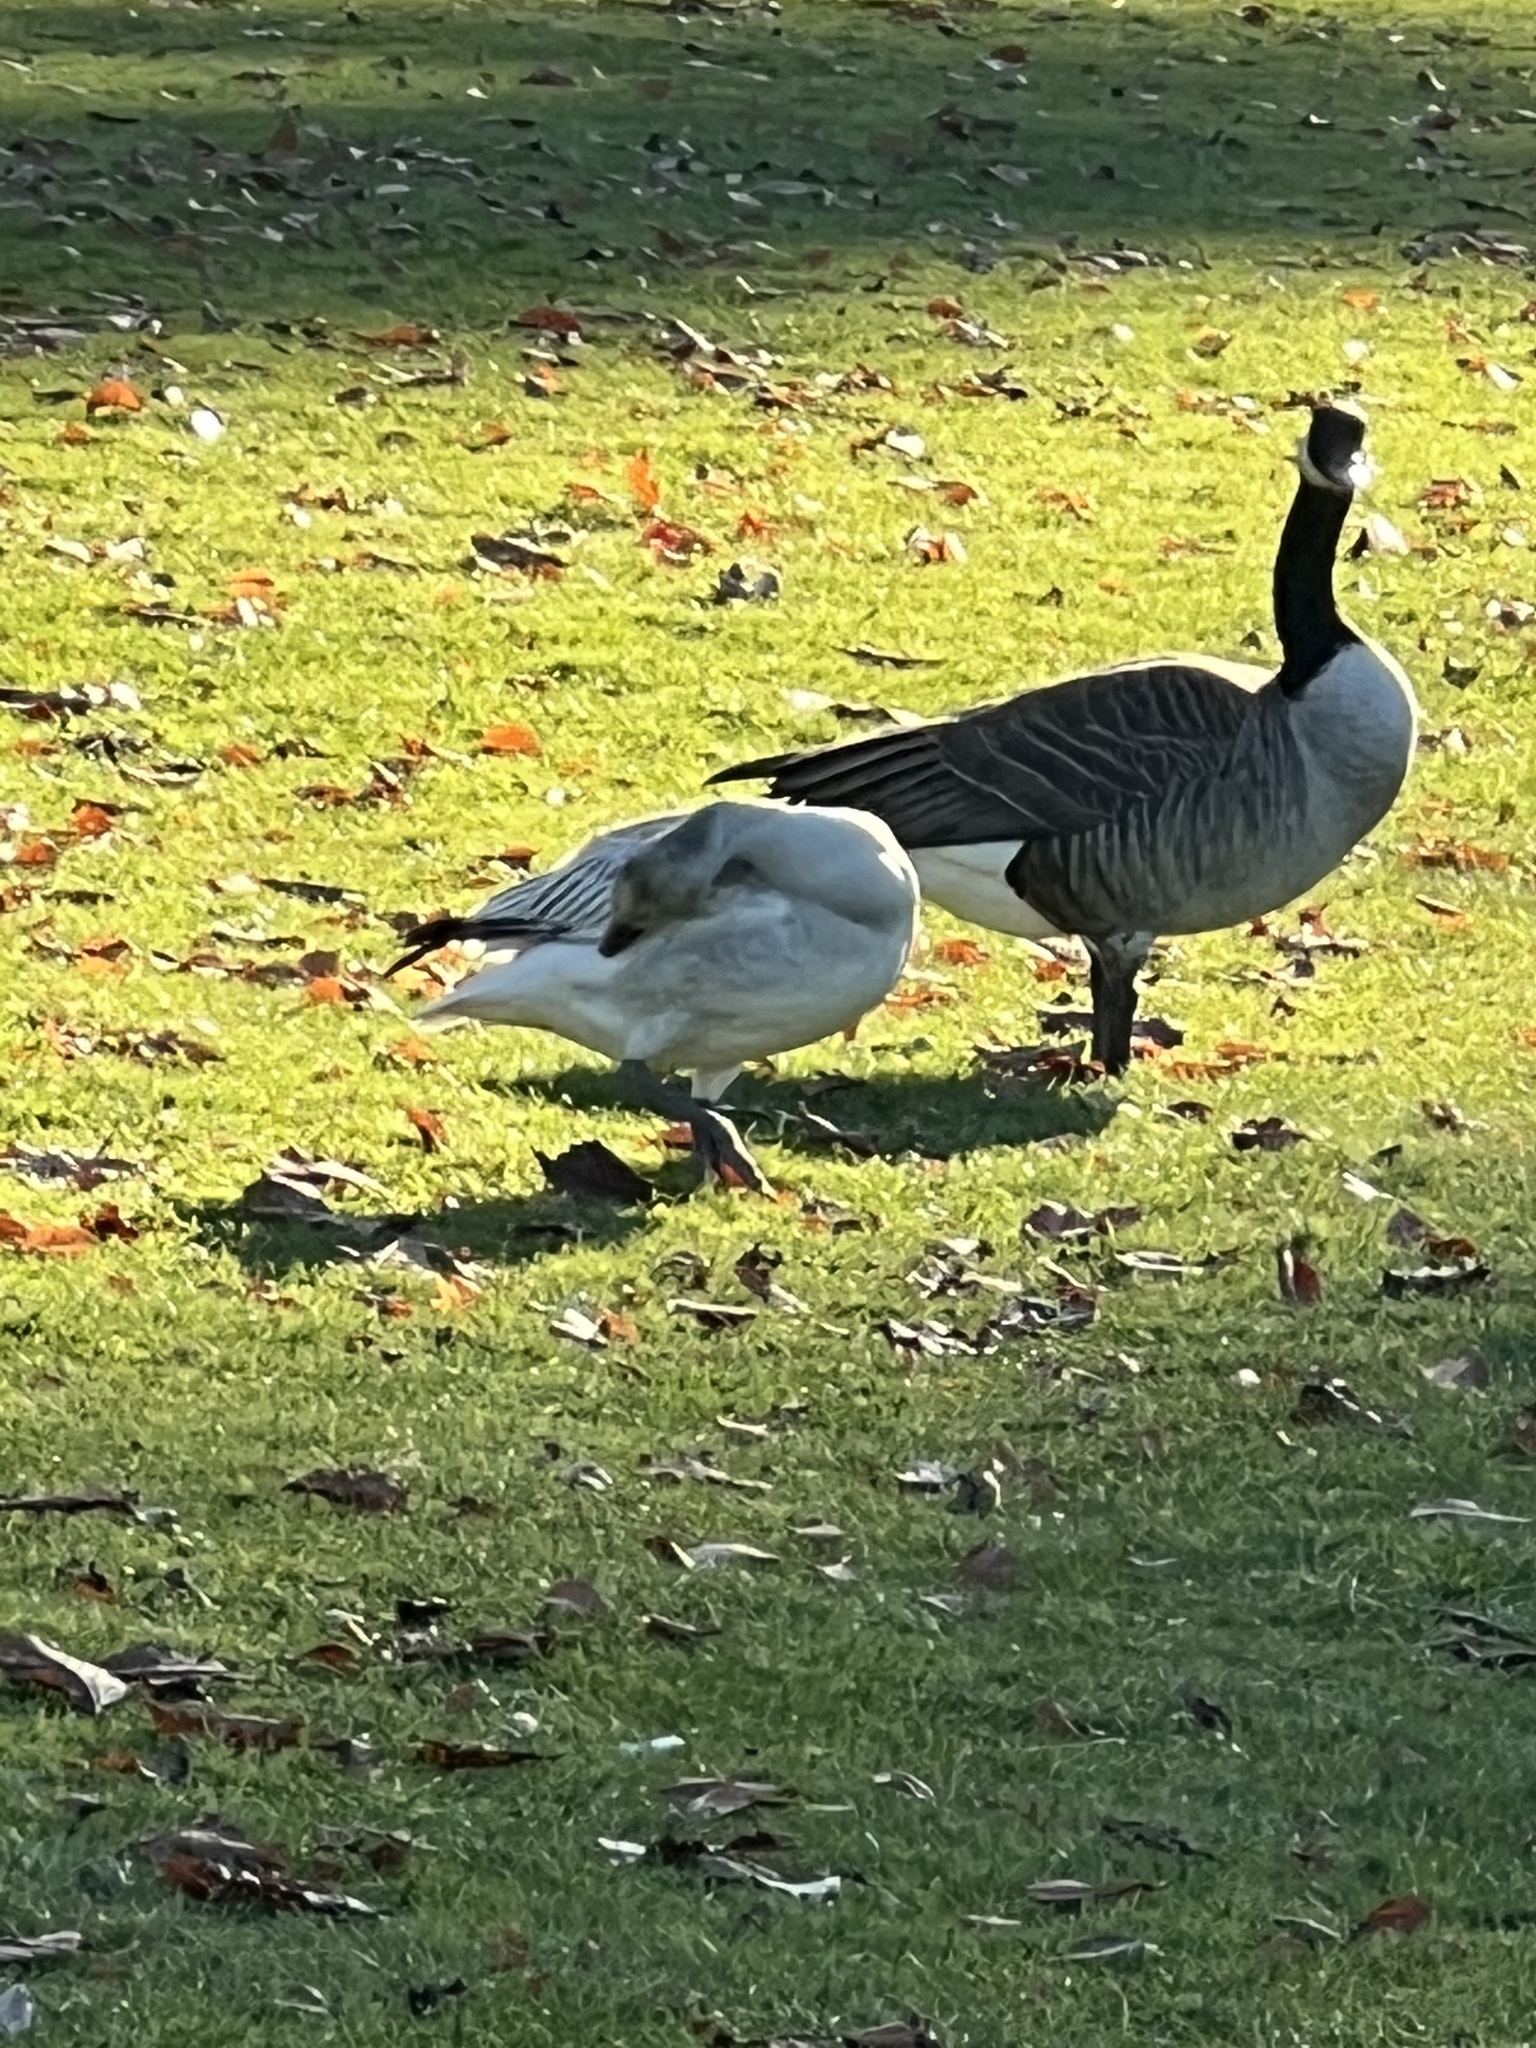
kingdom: Animalia
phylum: Chordata
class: Aves
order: Anseriformes
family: Anatidae
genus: Anser
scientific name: Anser caerulescens
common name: Snow goose
